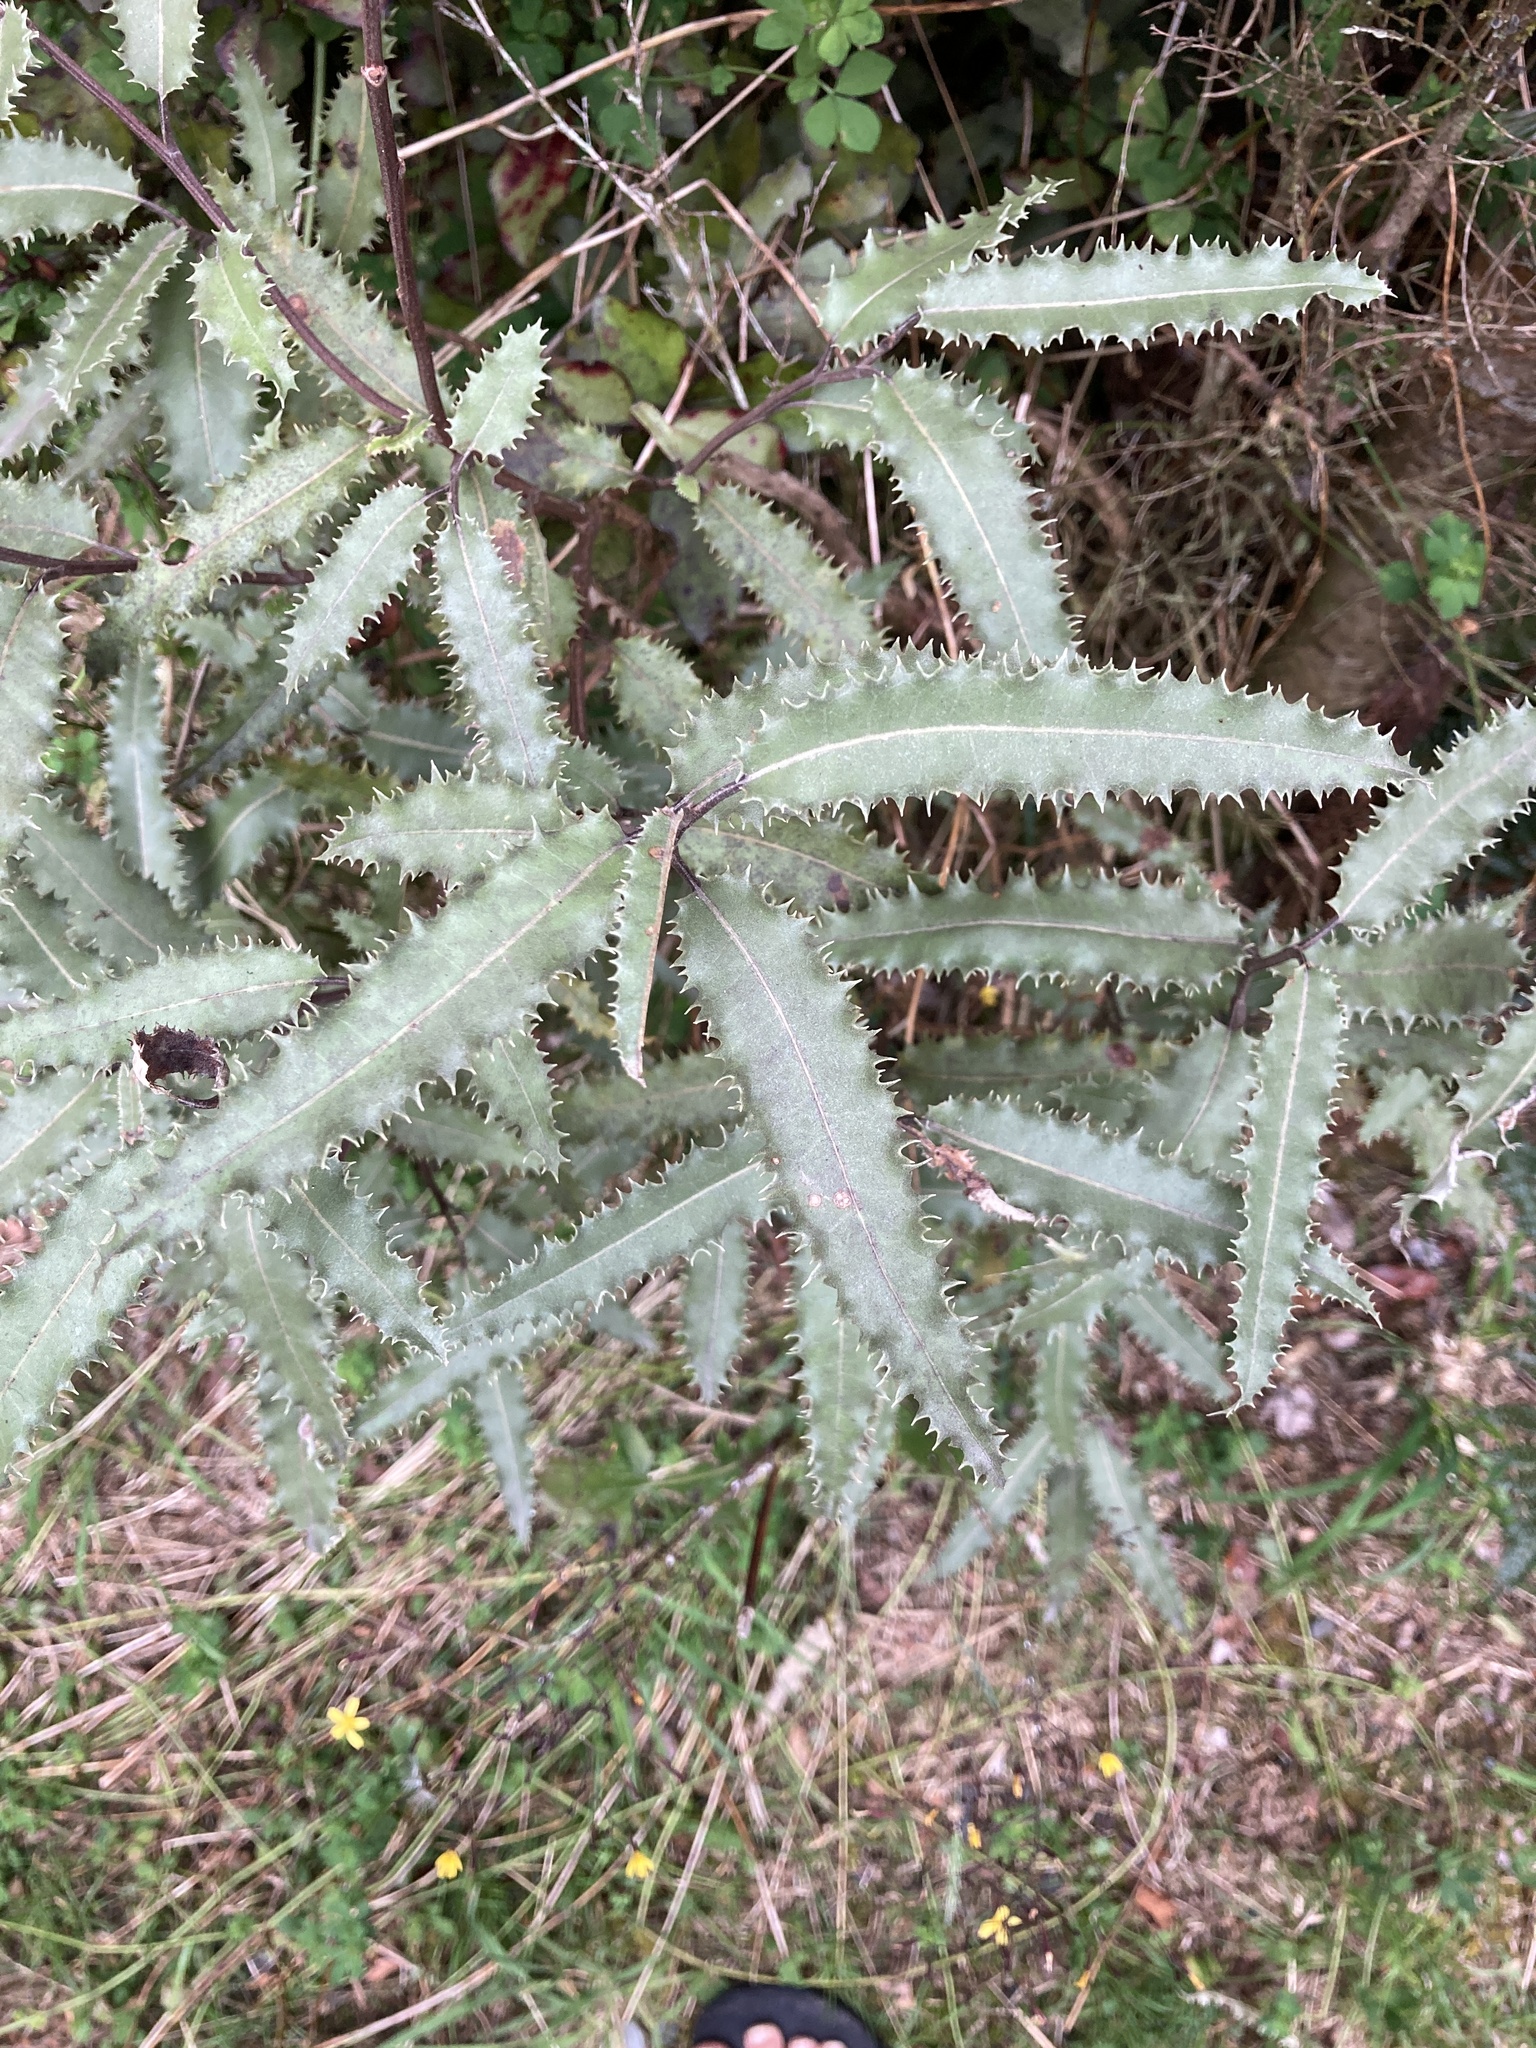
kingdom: Plantae
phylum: Tracheophyta
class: Magnoliopsida
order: Asterales
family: Asteraceae
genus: Olearia
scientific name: Olearia ilicifolia
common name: Maori-holly
